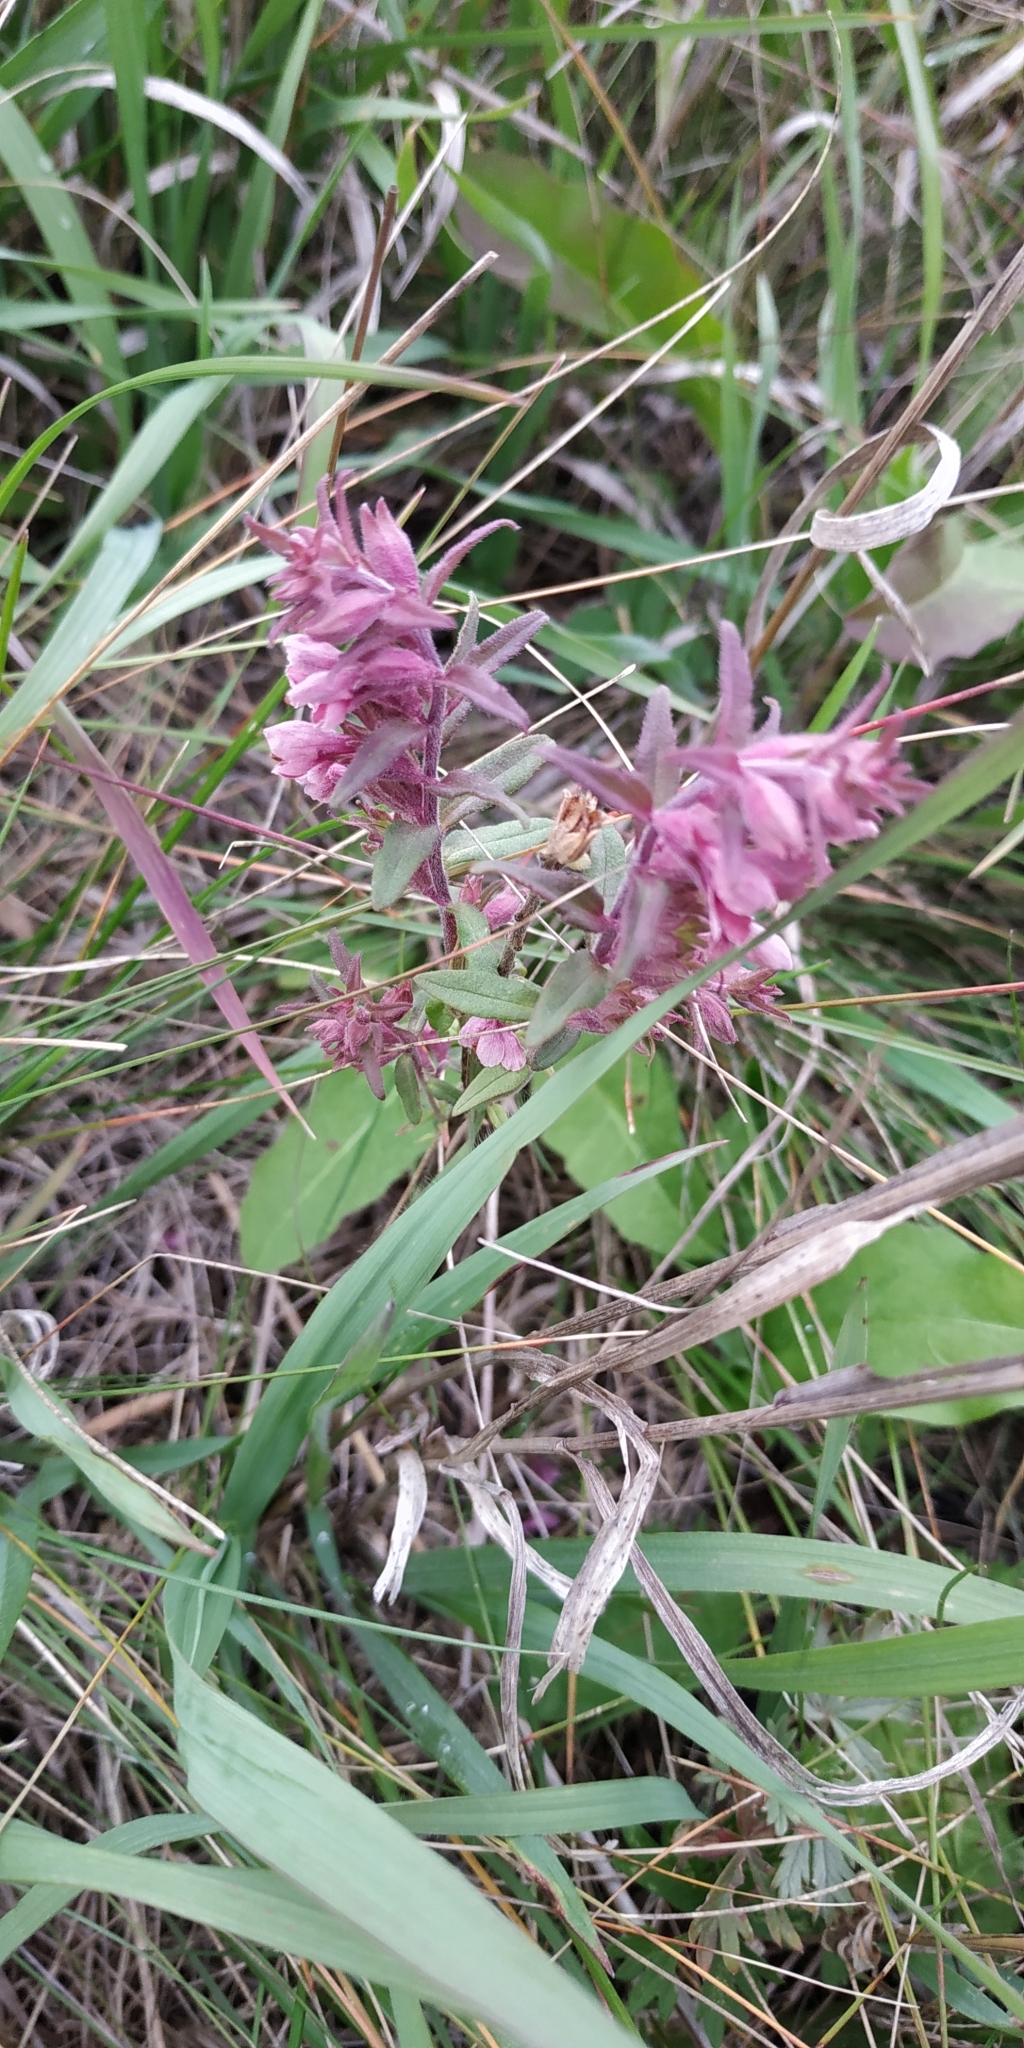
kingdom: Plantae
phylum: Tracheophyta
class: Magnoliopsida
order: Lamiales
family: Orobanchaceae
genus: Odontites
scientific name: Odontites vulgaris
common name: Broomrape
